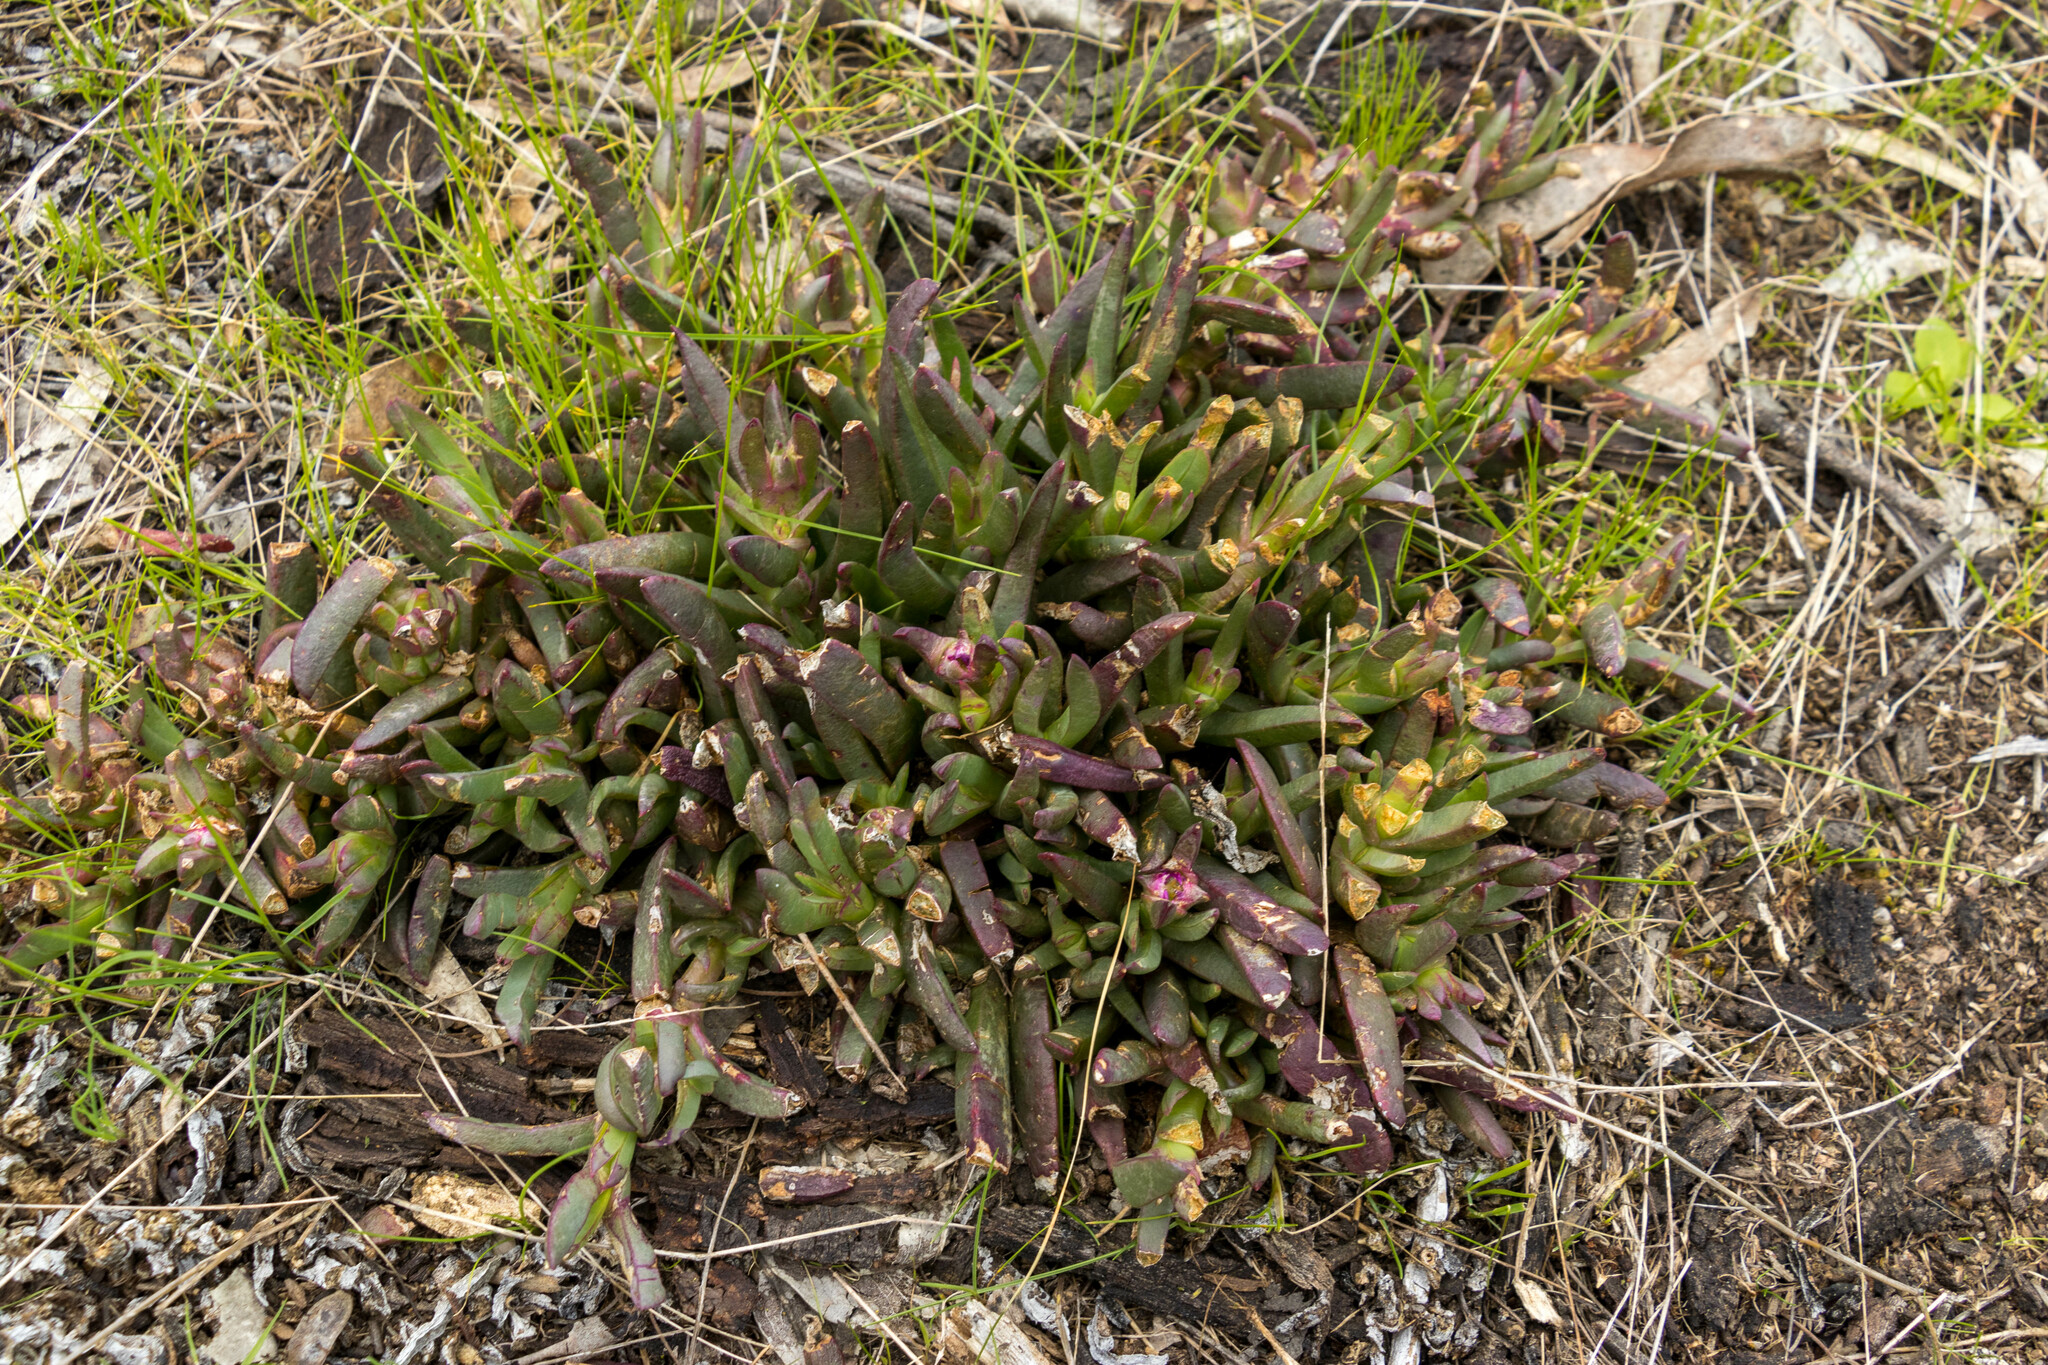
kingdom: Plantae
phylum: Tracheophyta
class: Magnoliopsida
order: Caryophyllales
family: Aizoaceae
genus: Carpobrotus
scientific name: Carpobrotus modestus
